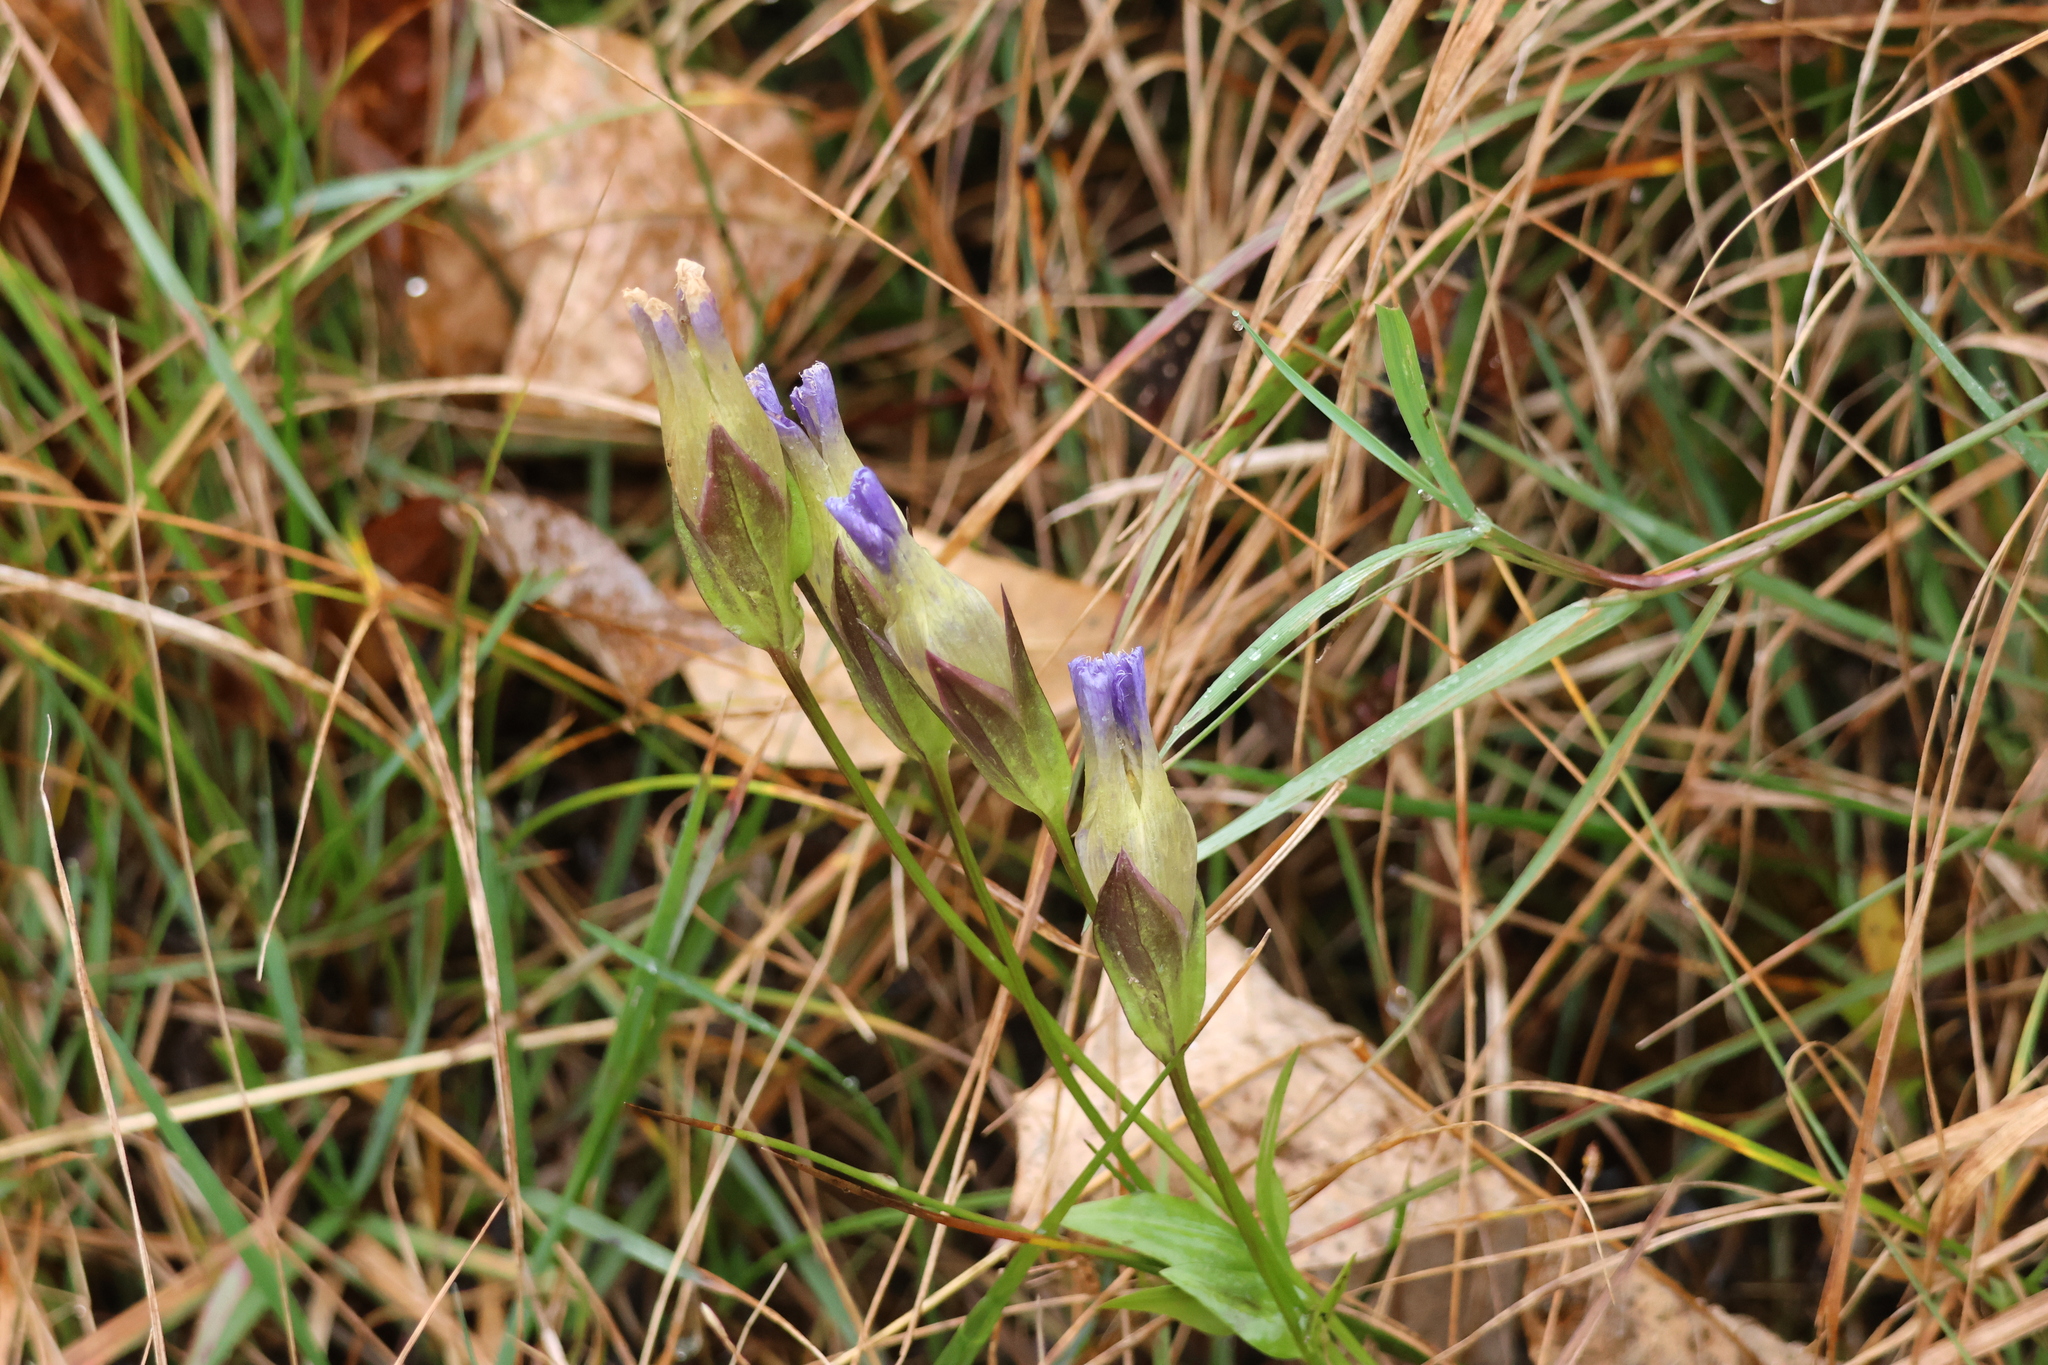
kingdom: Plantae
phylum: Tracheophyta
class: Magnoliopsida
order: Gentianales
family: Gentianaceae
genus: Gentianopsis
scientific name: Gentianopsis crinita
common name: Fringed-gentian
